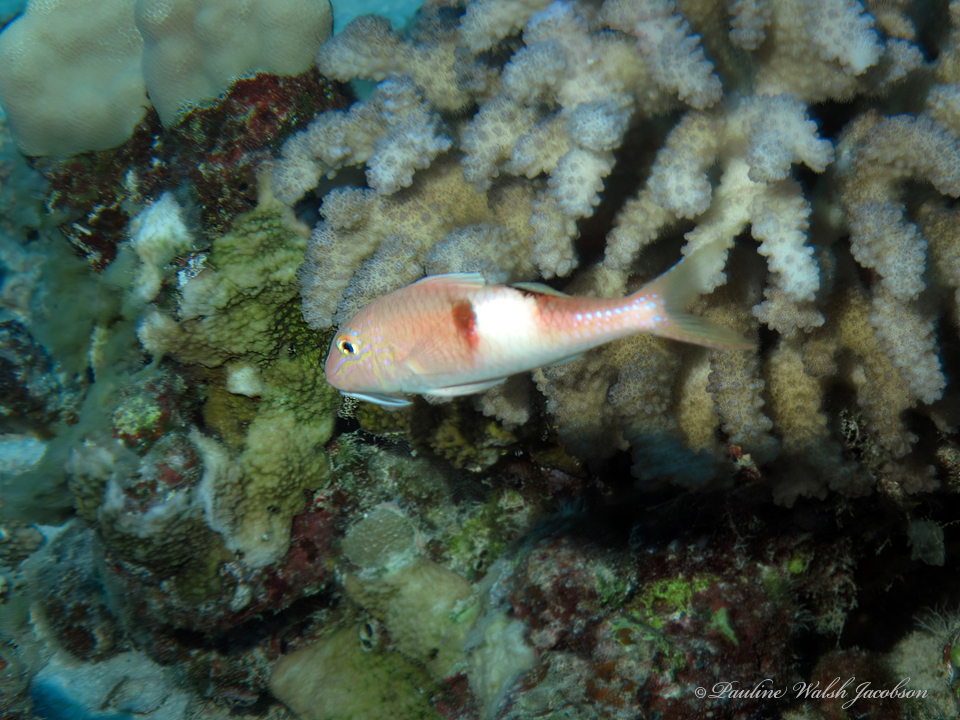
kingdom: Animalia
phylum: Chordata
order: Perciformes
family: Mullidae
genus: Parupeneus
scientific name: Parupeneus pleurostigma
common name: Sidespot goatfish
